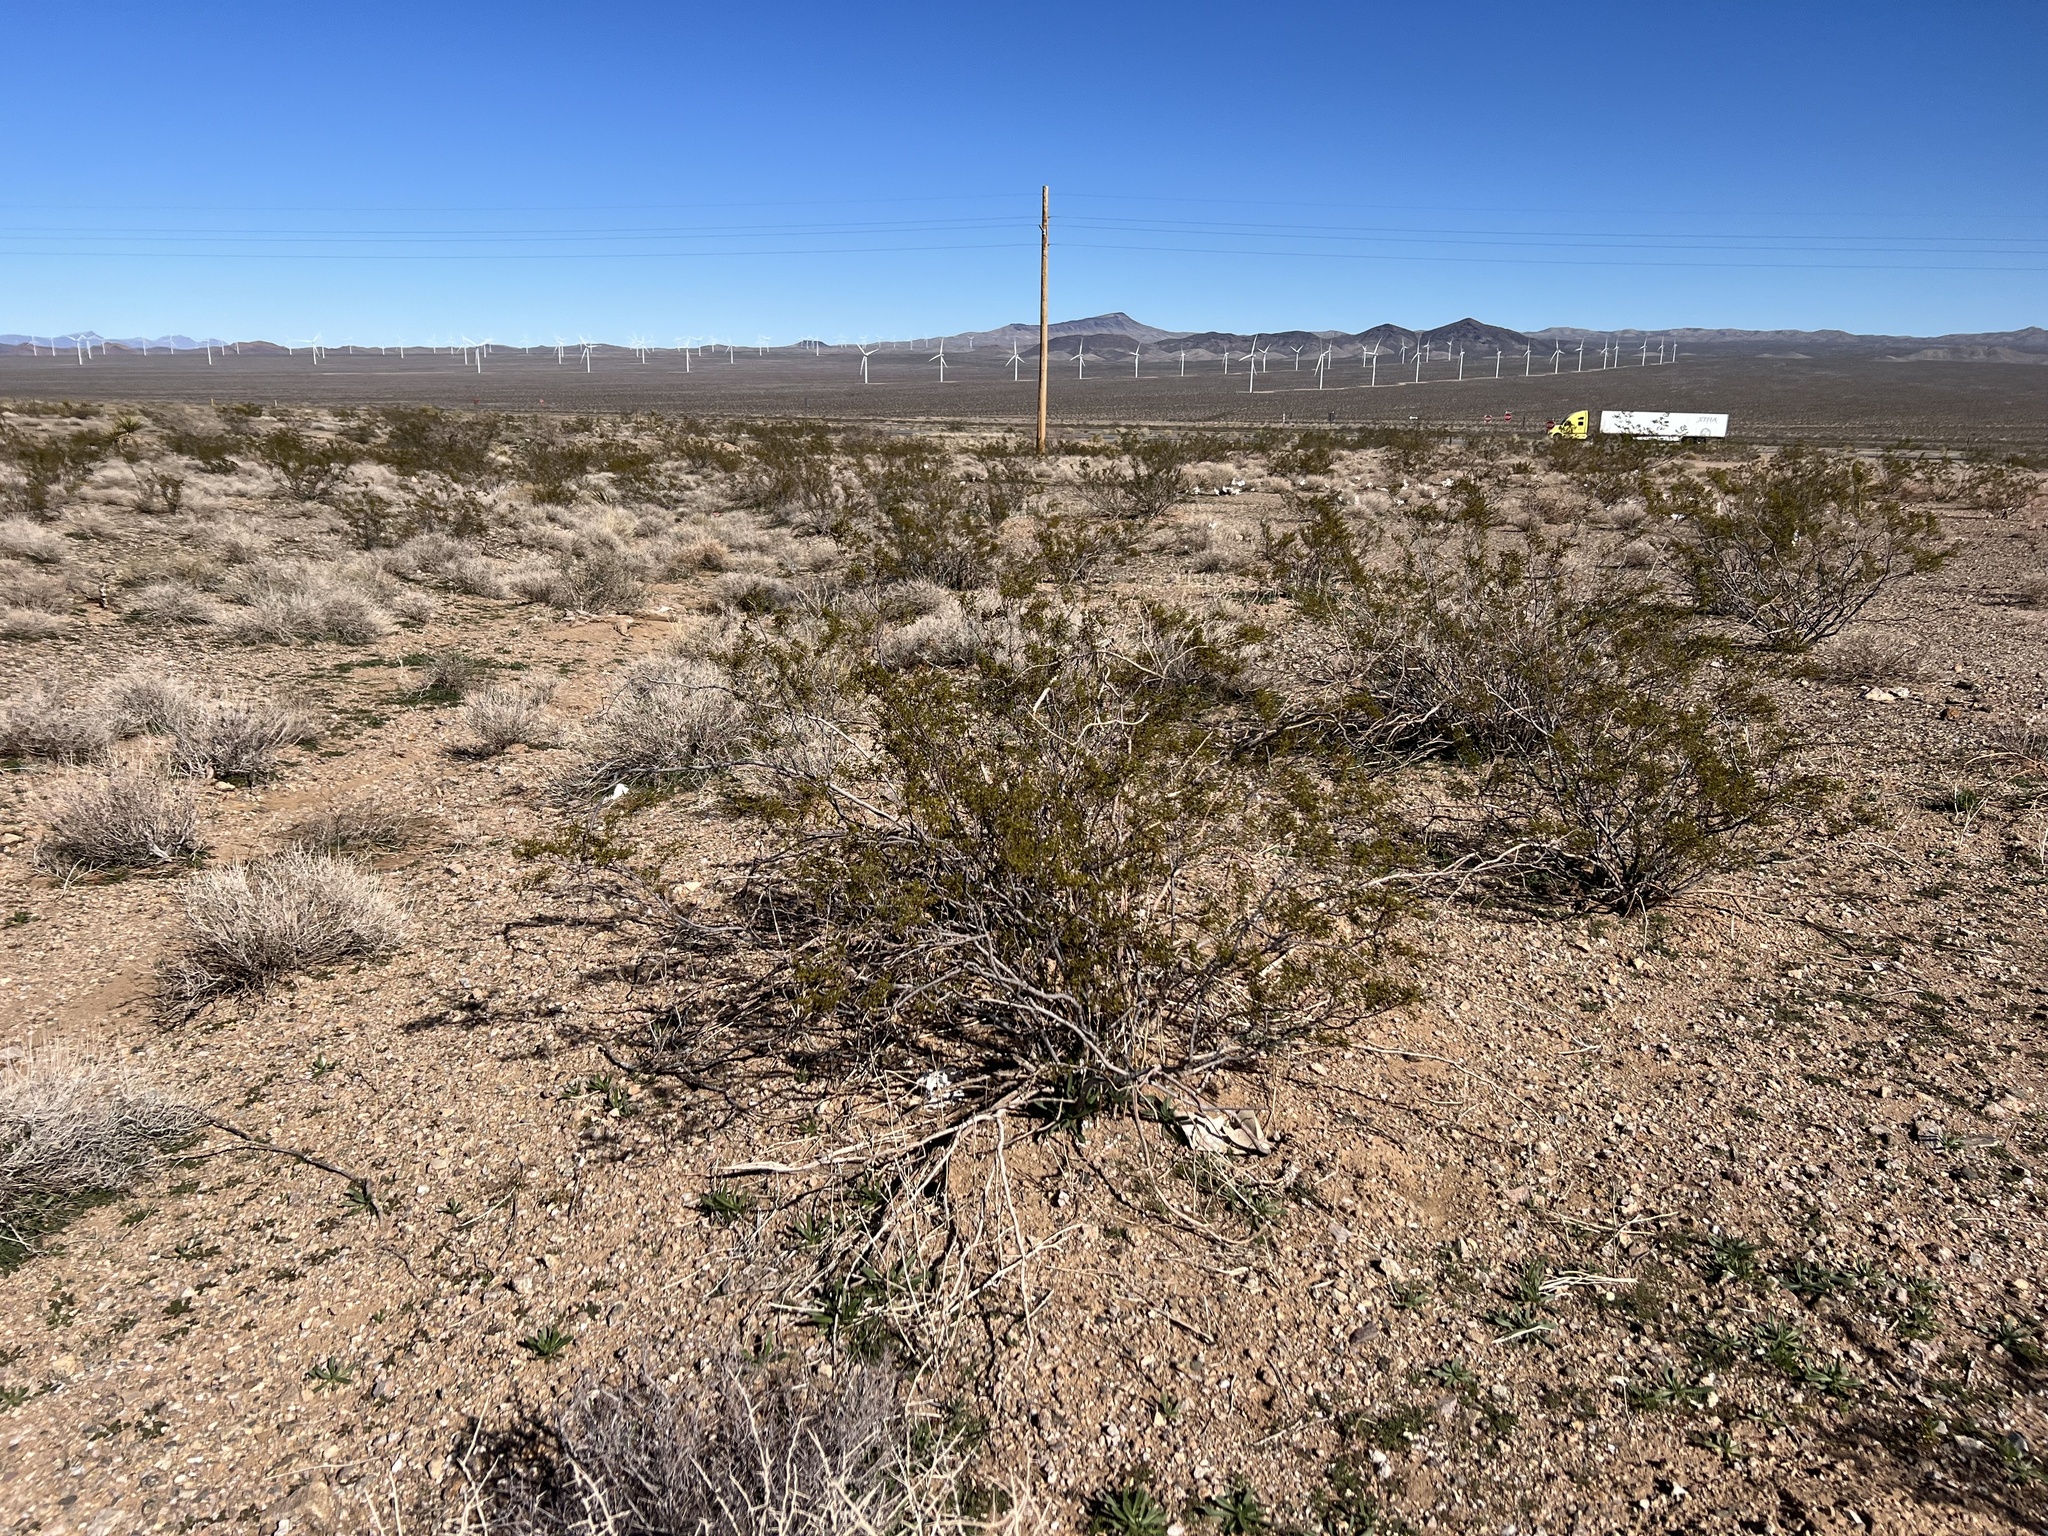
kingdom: Plantae
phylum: Tracheophyta
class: Magnoliopsida
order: Zygophyllales
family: Zygophyllaceae
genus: Larrea
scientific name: Larrea tridentata
